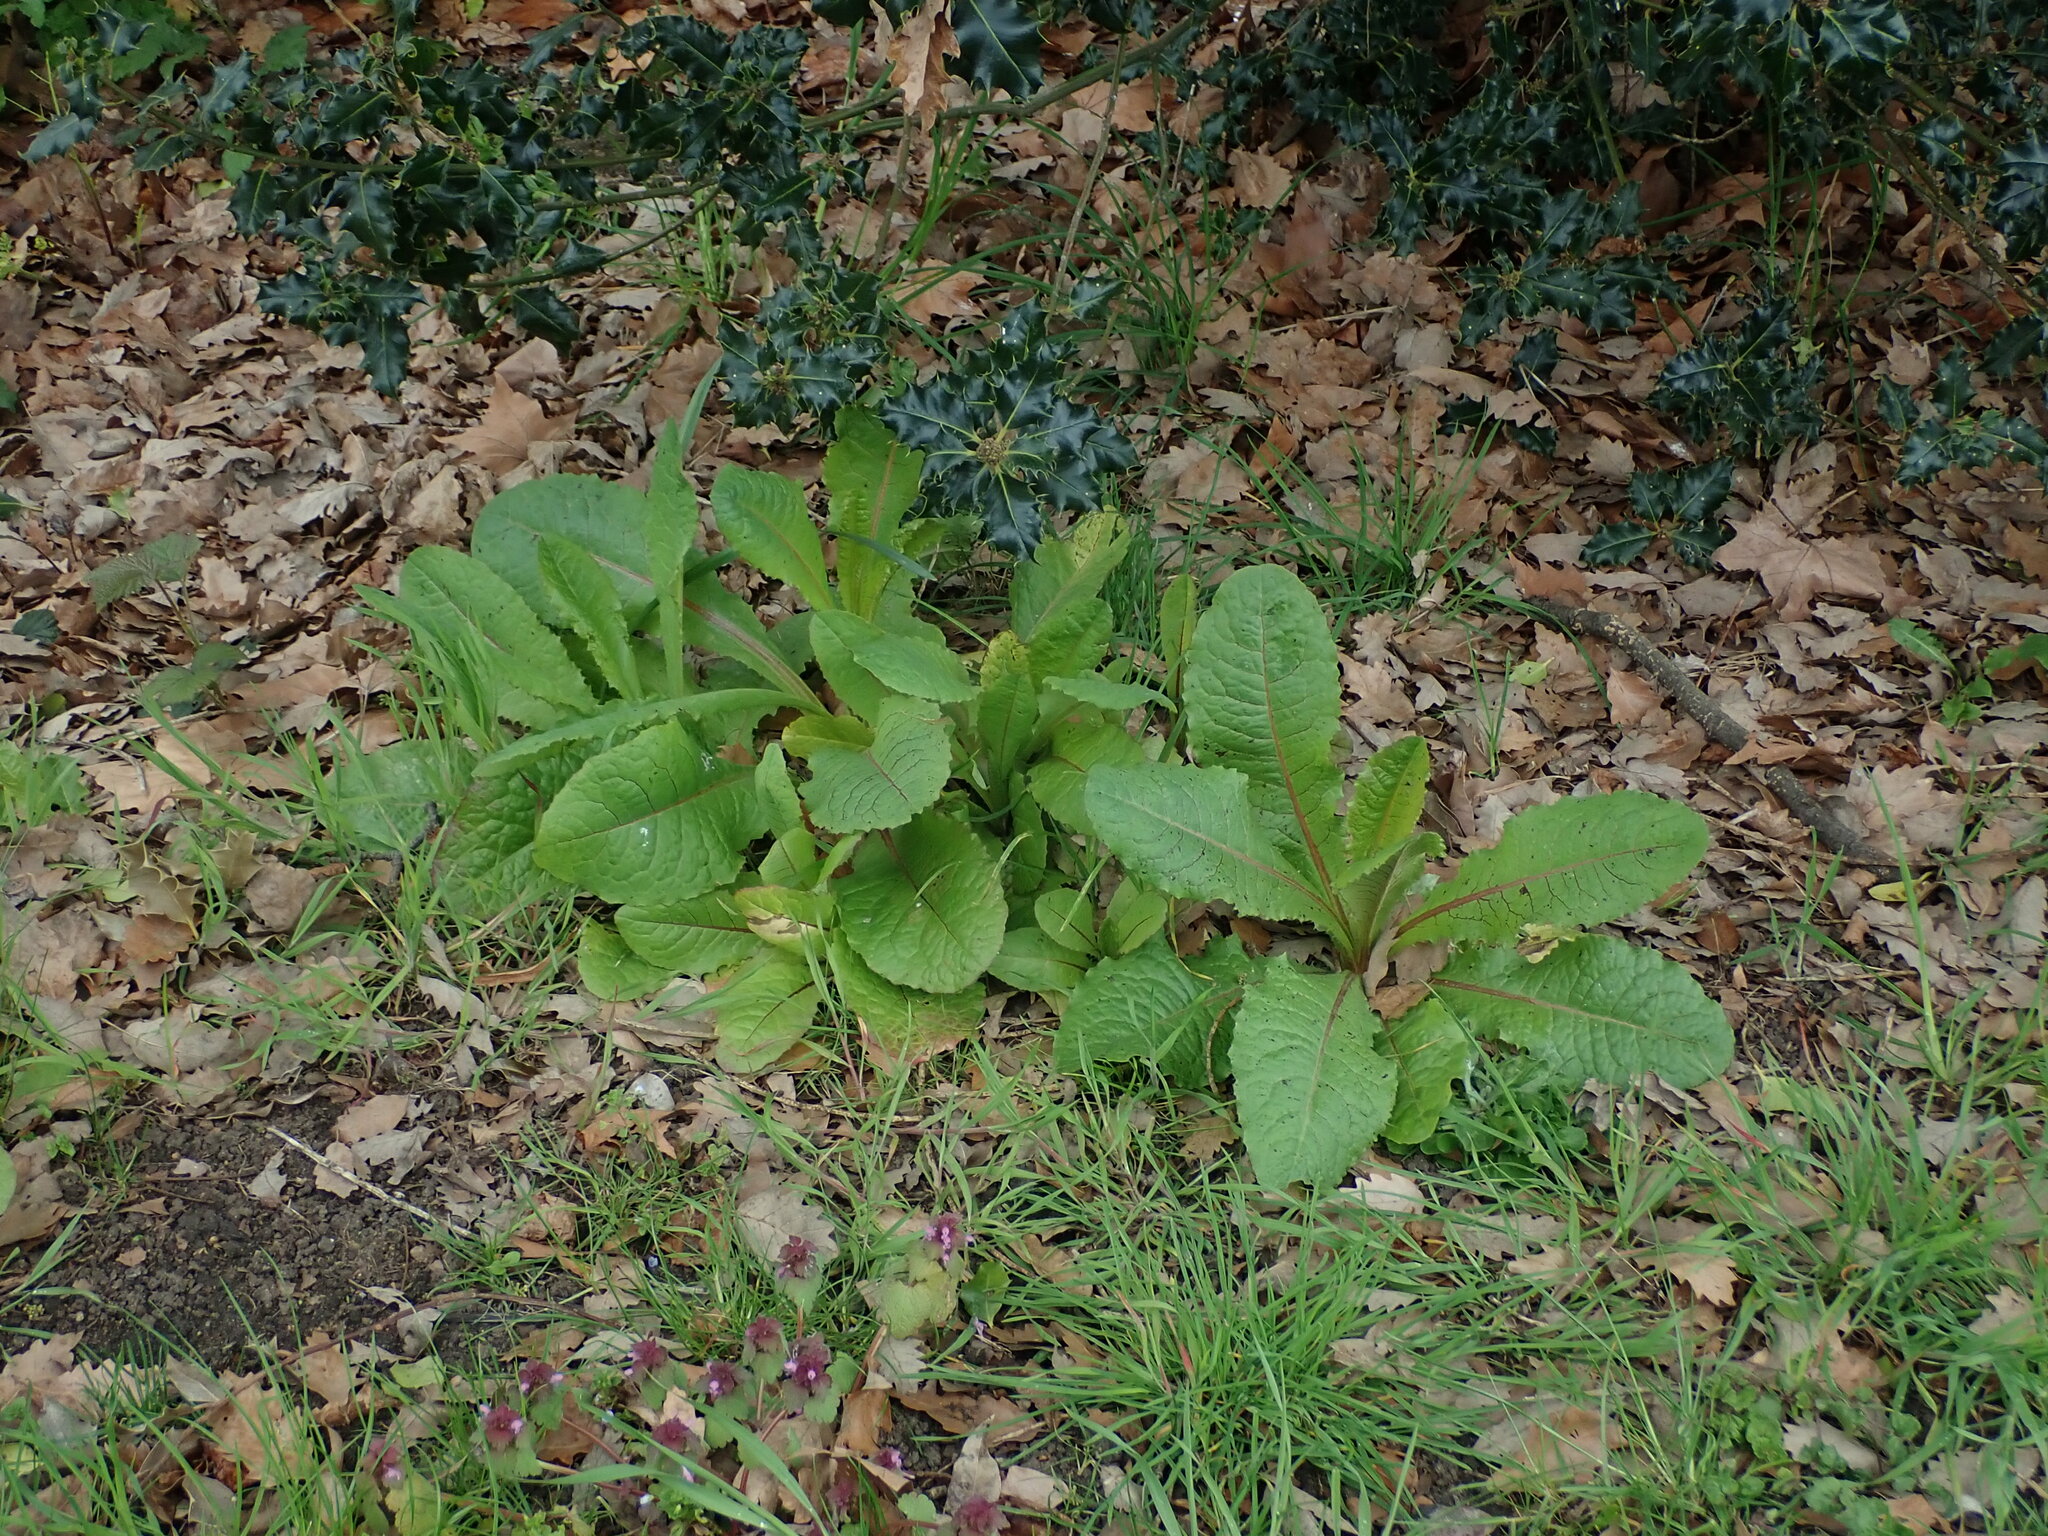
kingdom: Plantae
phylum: Tracheophyta
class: Magnoliopsida
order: Asterales
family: Asteraceae
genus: Lactuca
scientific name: Lactuca virosa
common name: Great lettuce
